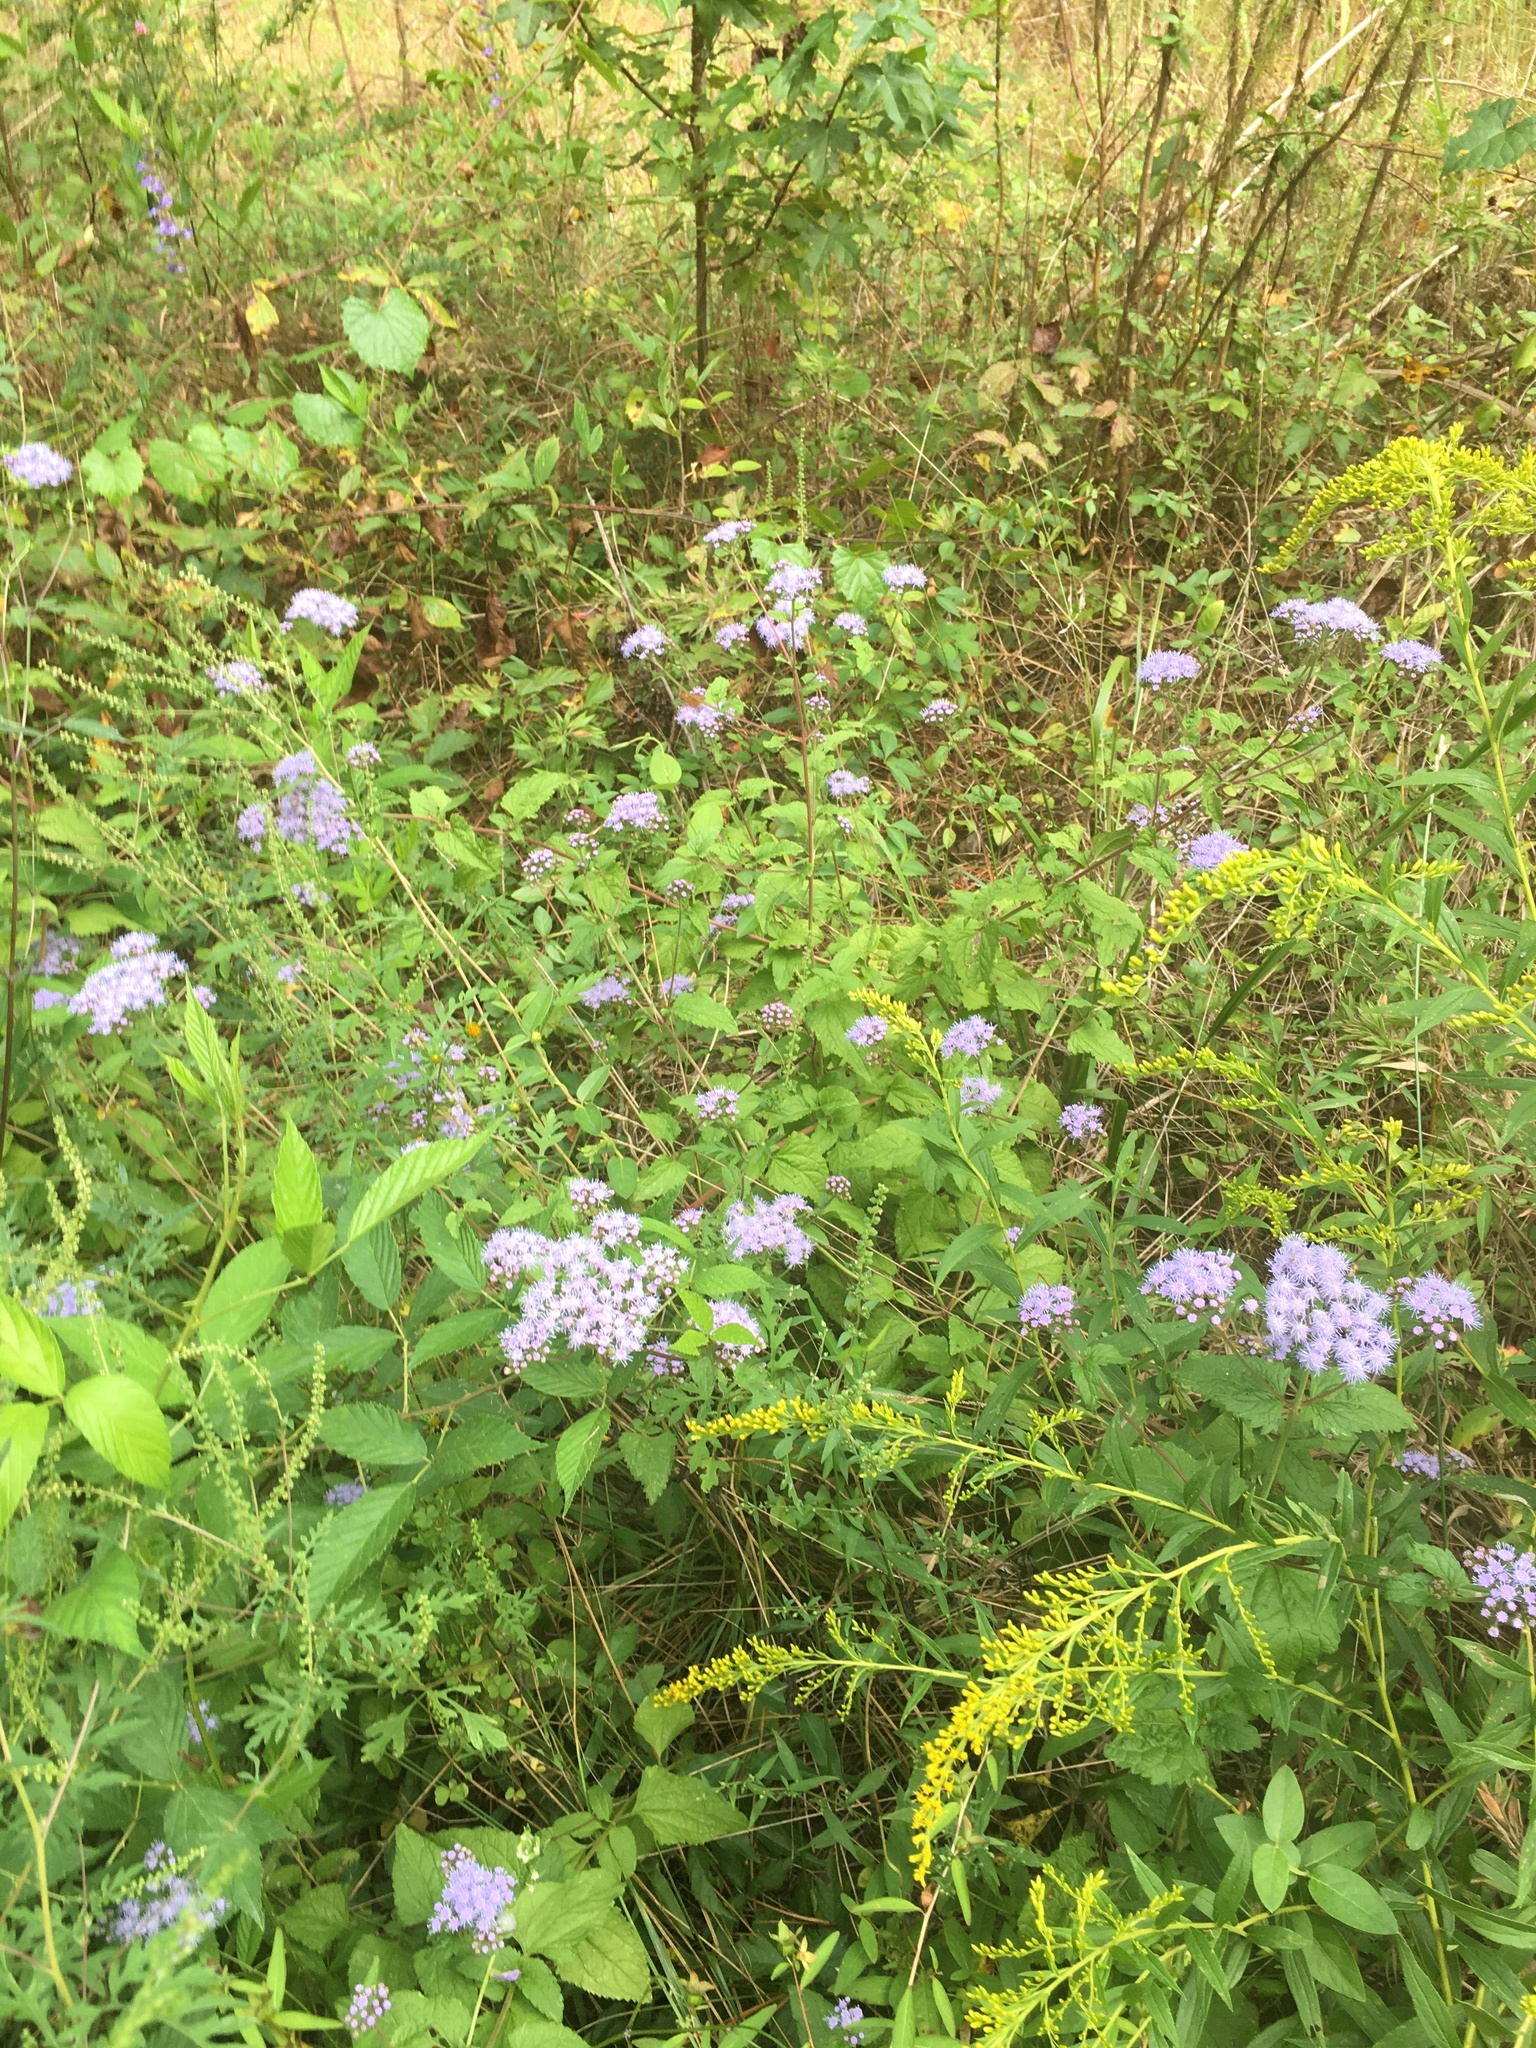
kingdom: Plantae
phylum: Tracheophyta
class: Magnoliopsida
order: Asterales
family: Asteraceae
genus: Conoclinium
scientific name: Conoclinium coelestinum
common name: Blue mistflower
